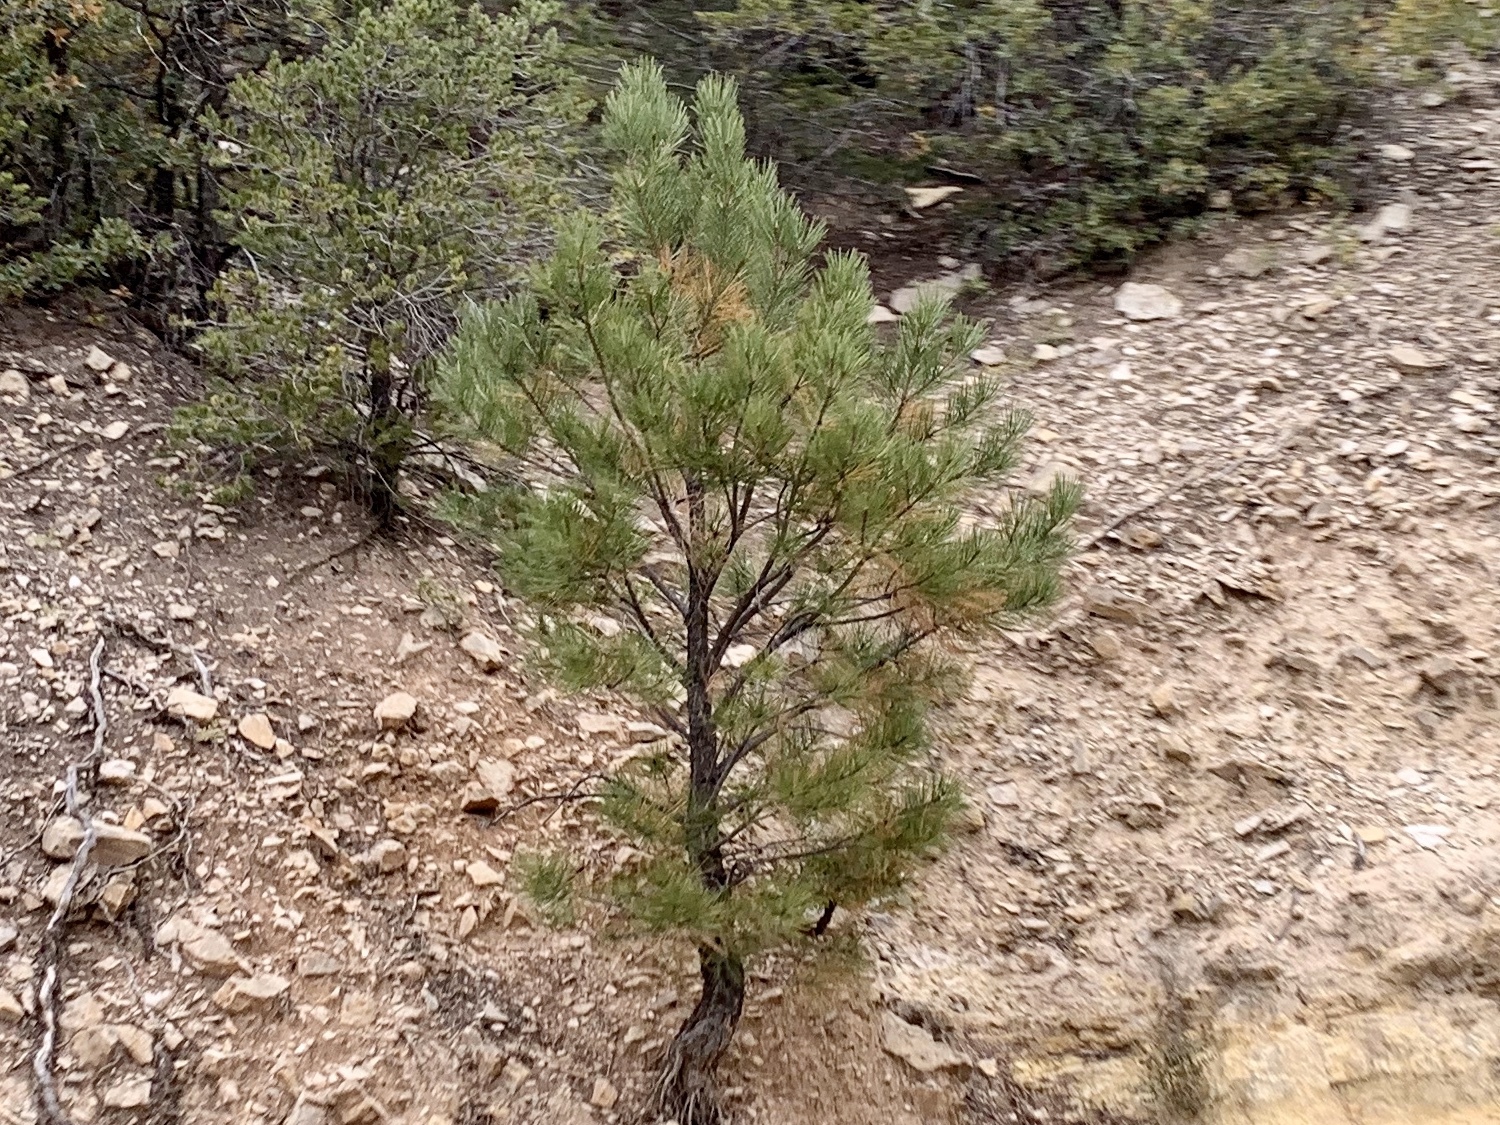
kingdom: Plantae
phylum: Tracheophyta
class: Pinopsida
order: Pinales
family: Pinaceae
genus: Pinus
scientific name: Pinus ponderosa
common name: Western yellow-pine
